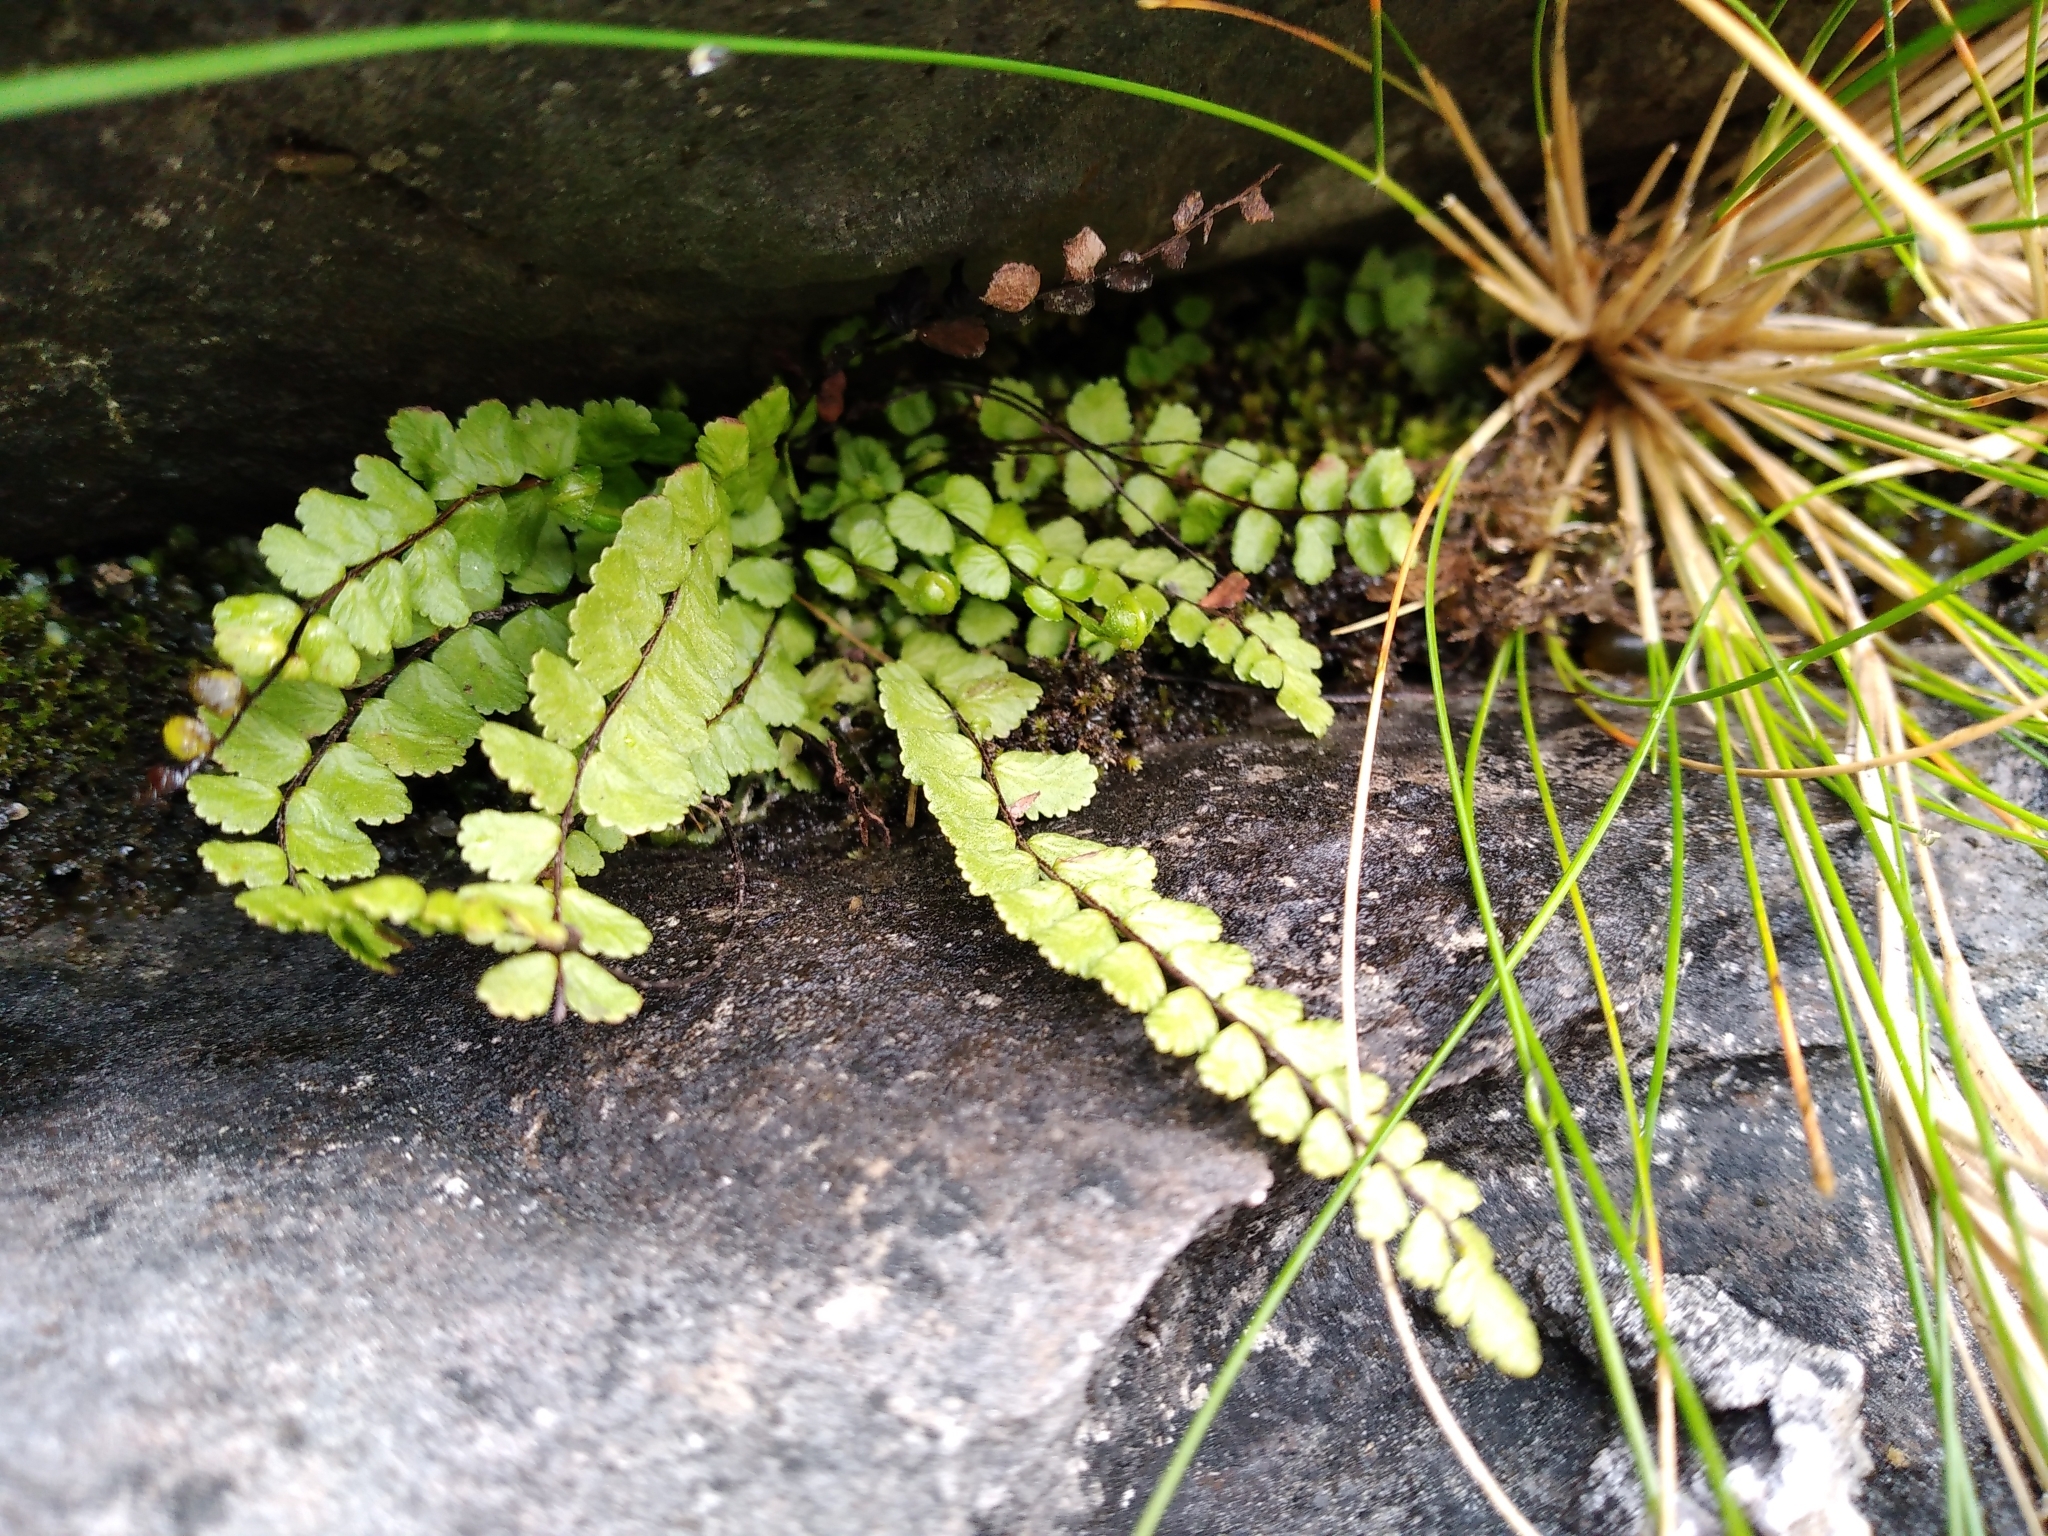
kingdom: Plantae
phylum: Tracheophyta
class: Polypodiopsida
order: Polypodiales
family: Aspleniaceae
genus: Asplenium
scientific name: Asplenium trichomanes
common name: Maidenhair spleenwort
